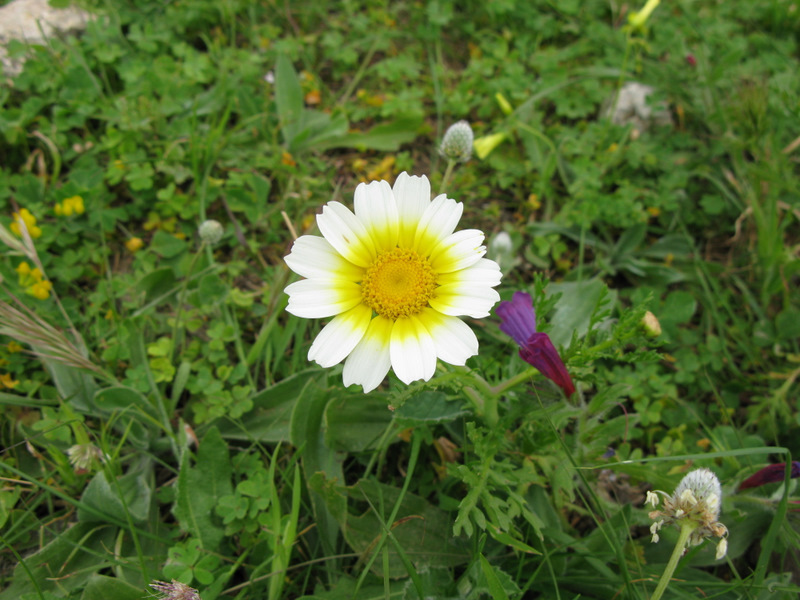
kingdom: Plantae
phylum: Tracheophyta
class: Magnoliopsida
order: Asterales
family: Asteraceae
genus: Glebionis
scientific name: Glebionis coronaria
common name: Crowndaisy
